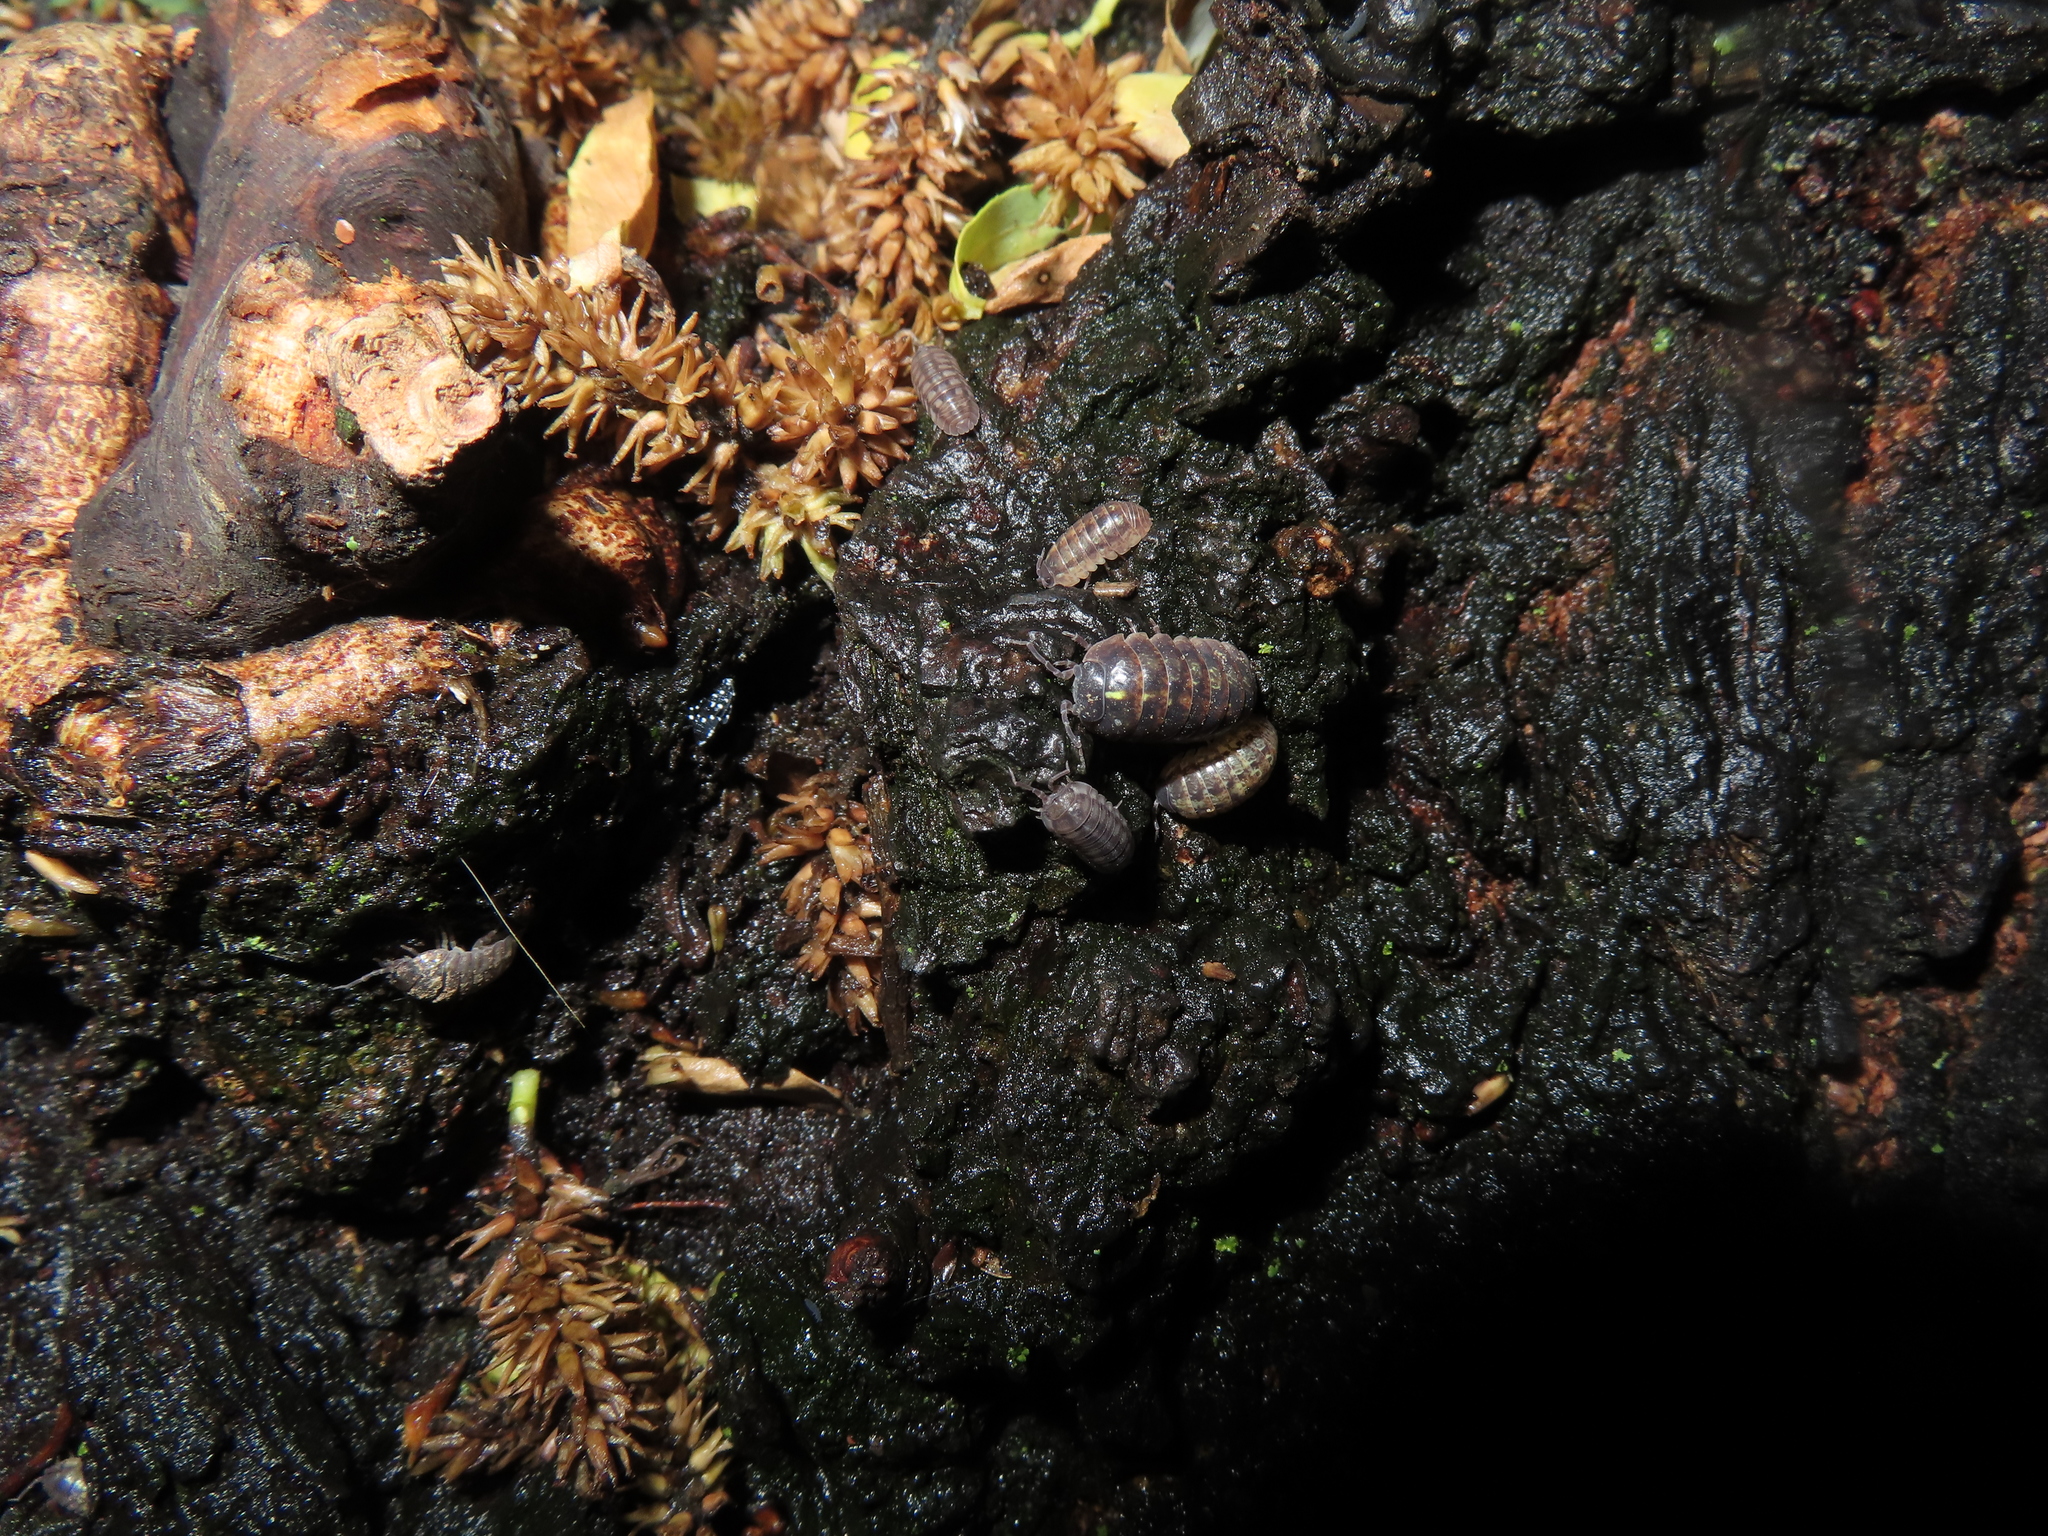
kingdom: Animalia
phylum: Arthropoda
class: Malacostraca
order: Isopoda
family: Armadillidiidae
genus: Armadillidium
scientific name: Armadillidium vulgare
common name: Common pill woodlouse
